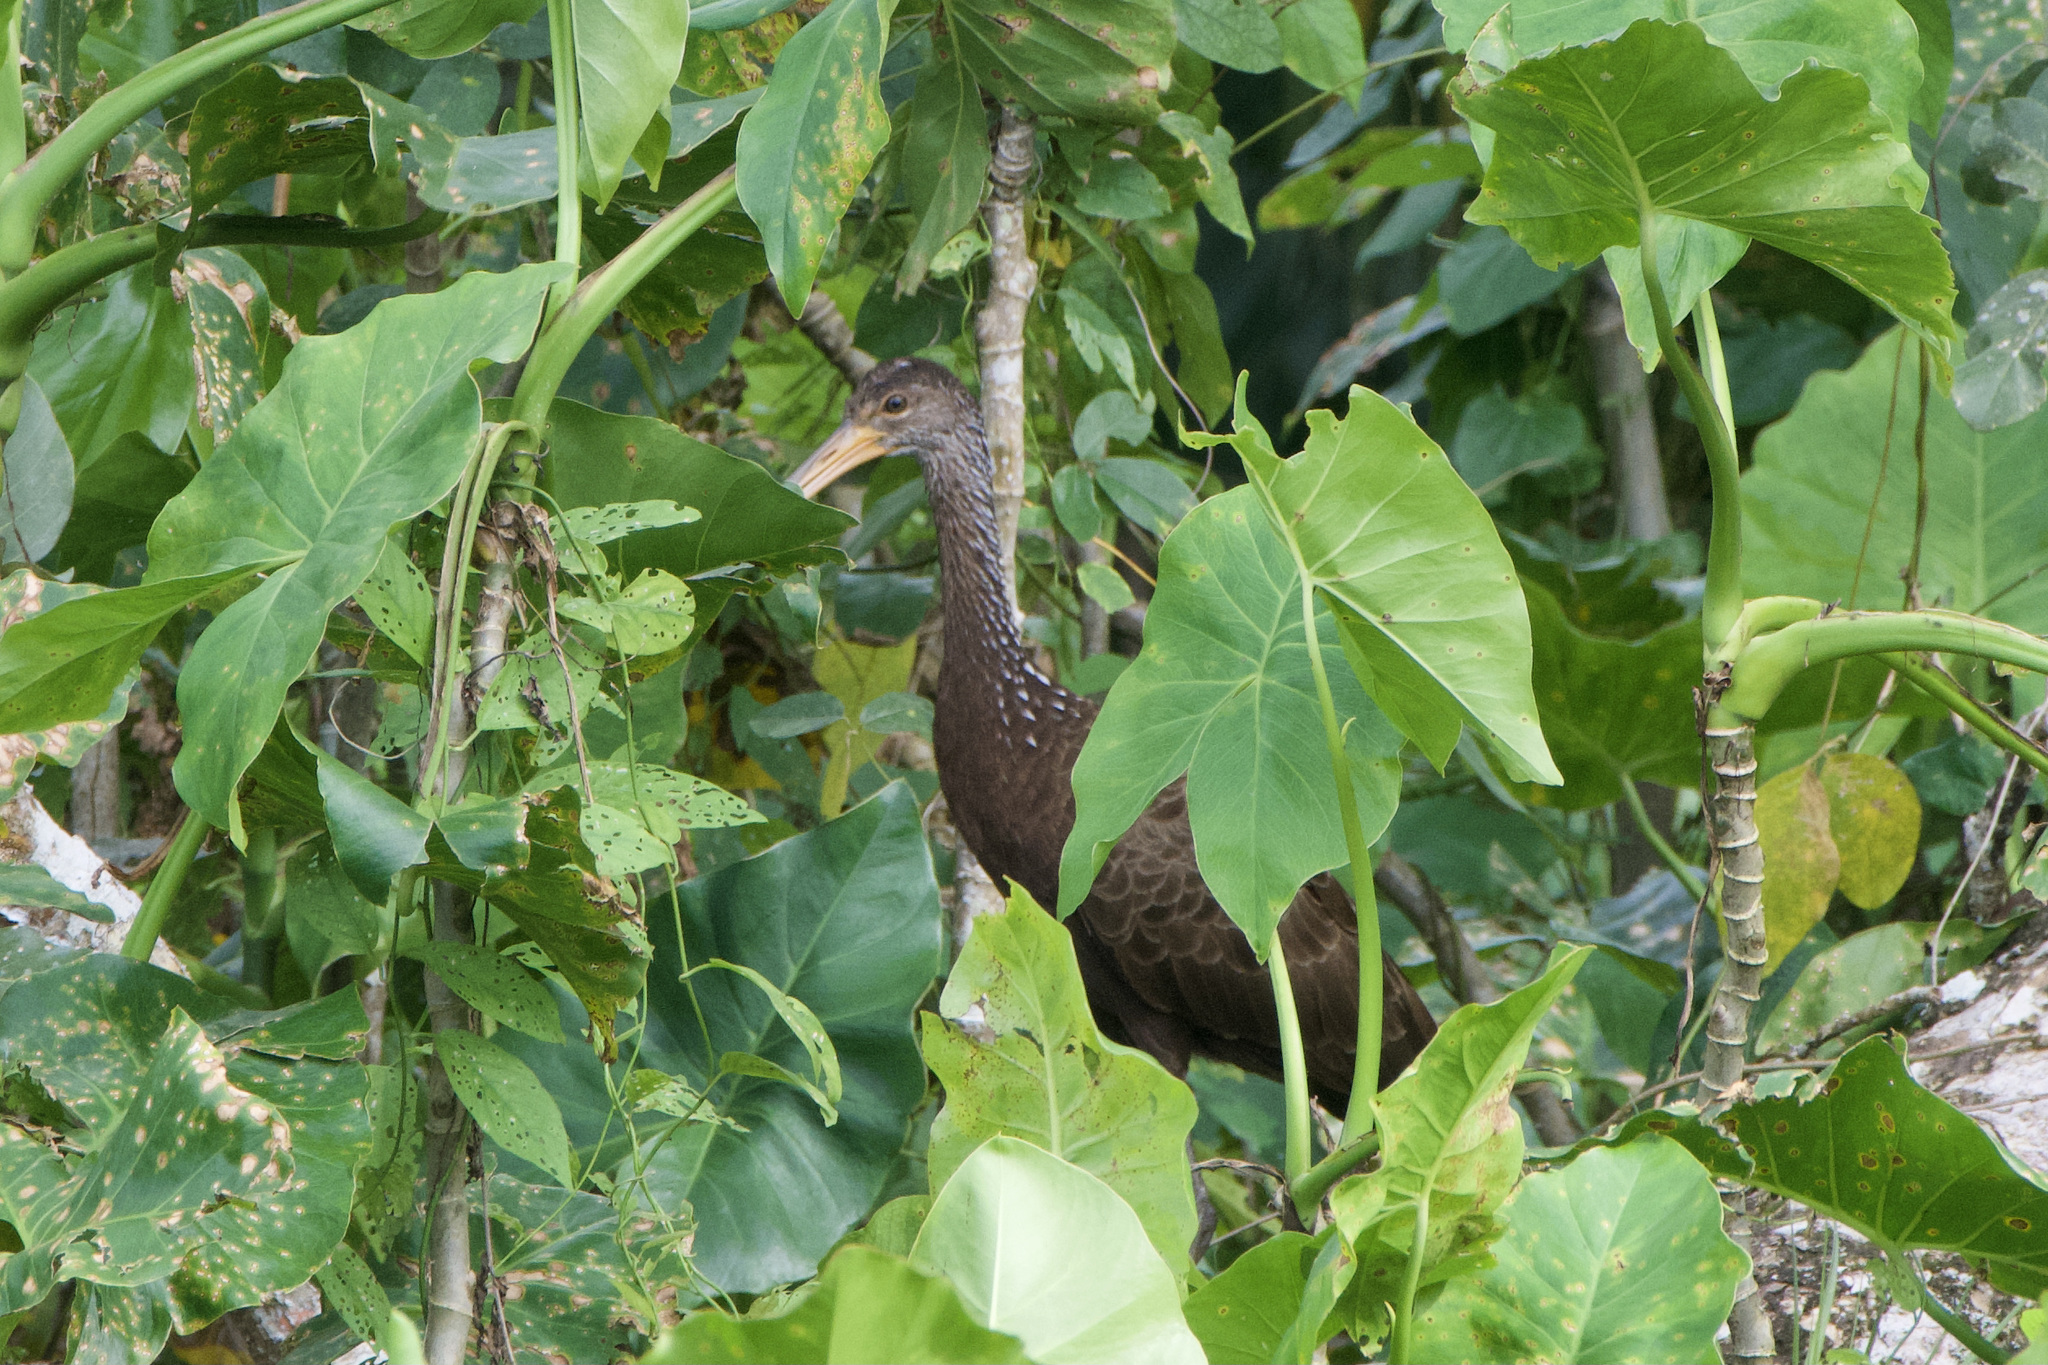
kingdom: Animalia
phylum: Chordata
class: Aves
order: Gruiformes
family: Aramidae
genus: Aramus
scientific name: Aramus guarauna
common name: Limpkin
